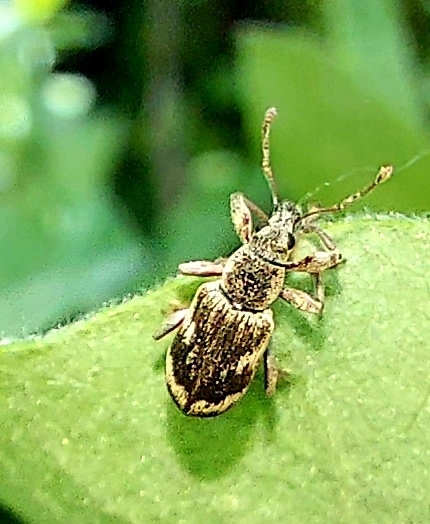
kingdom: Animalia
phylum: Arthropoda
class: Insecta
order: Coleoptera
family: Curculionidae
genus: Polydrusus
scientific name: Polydrusus tereticollis
